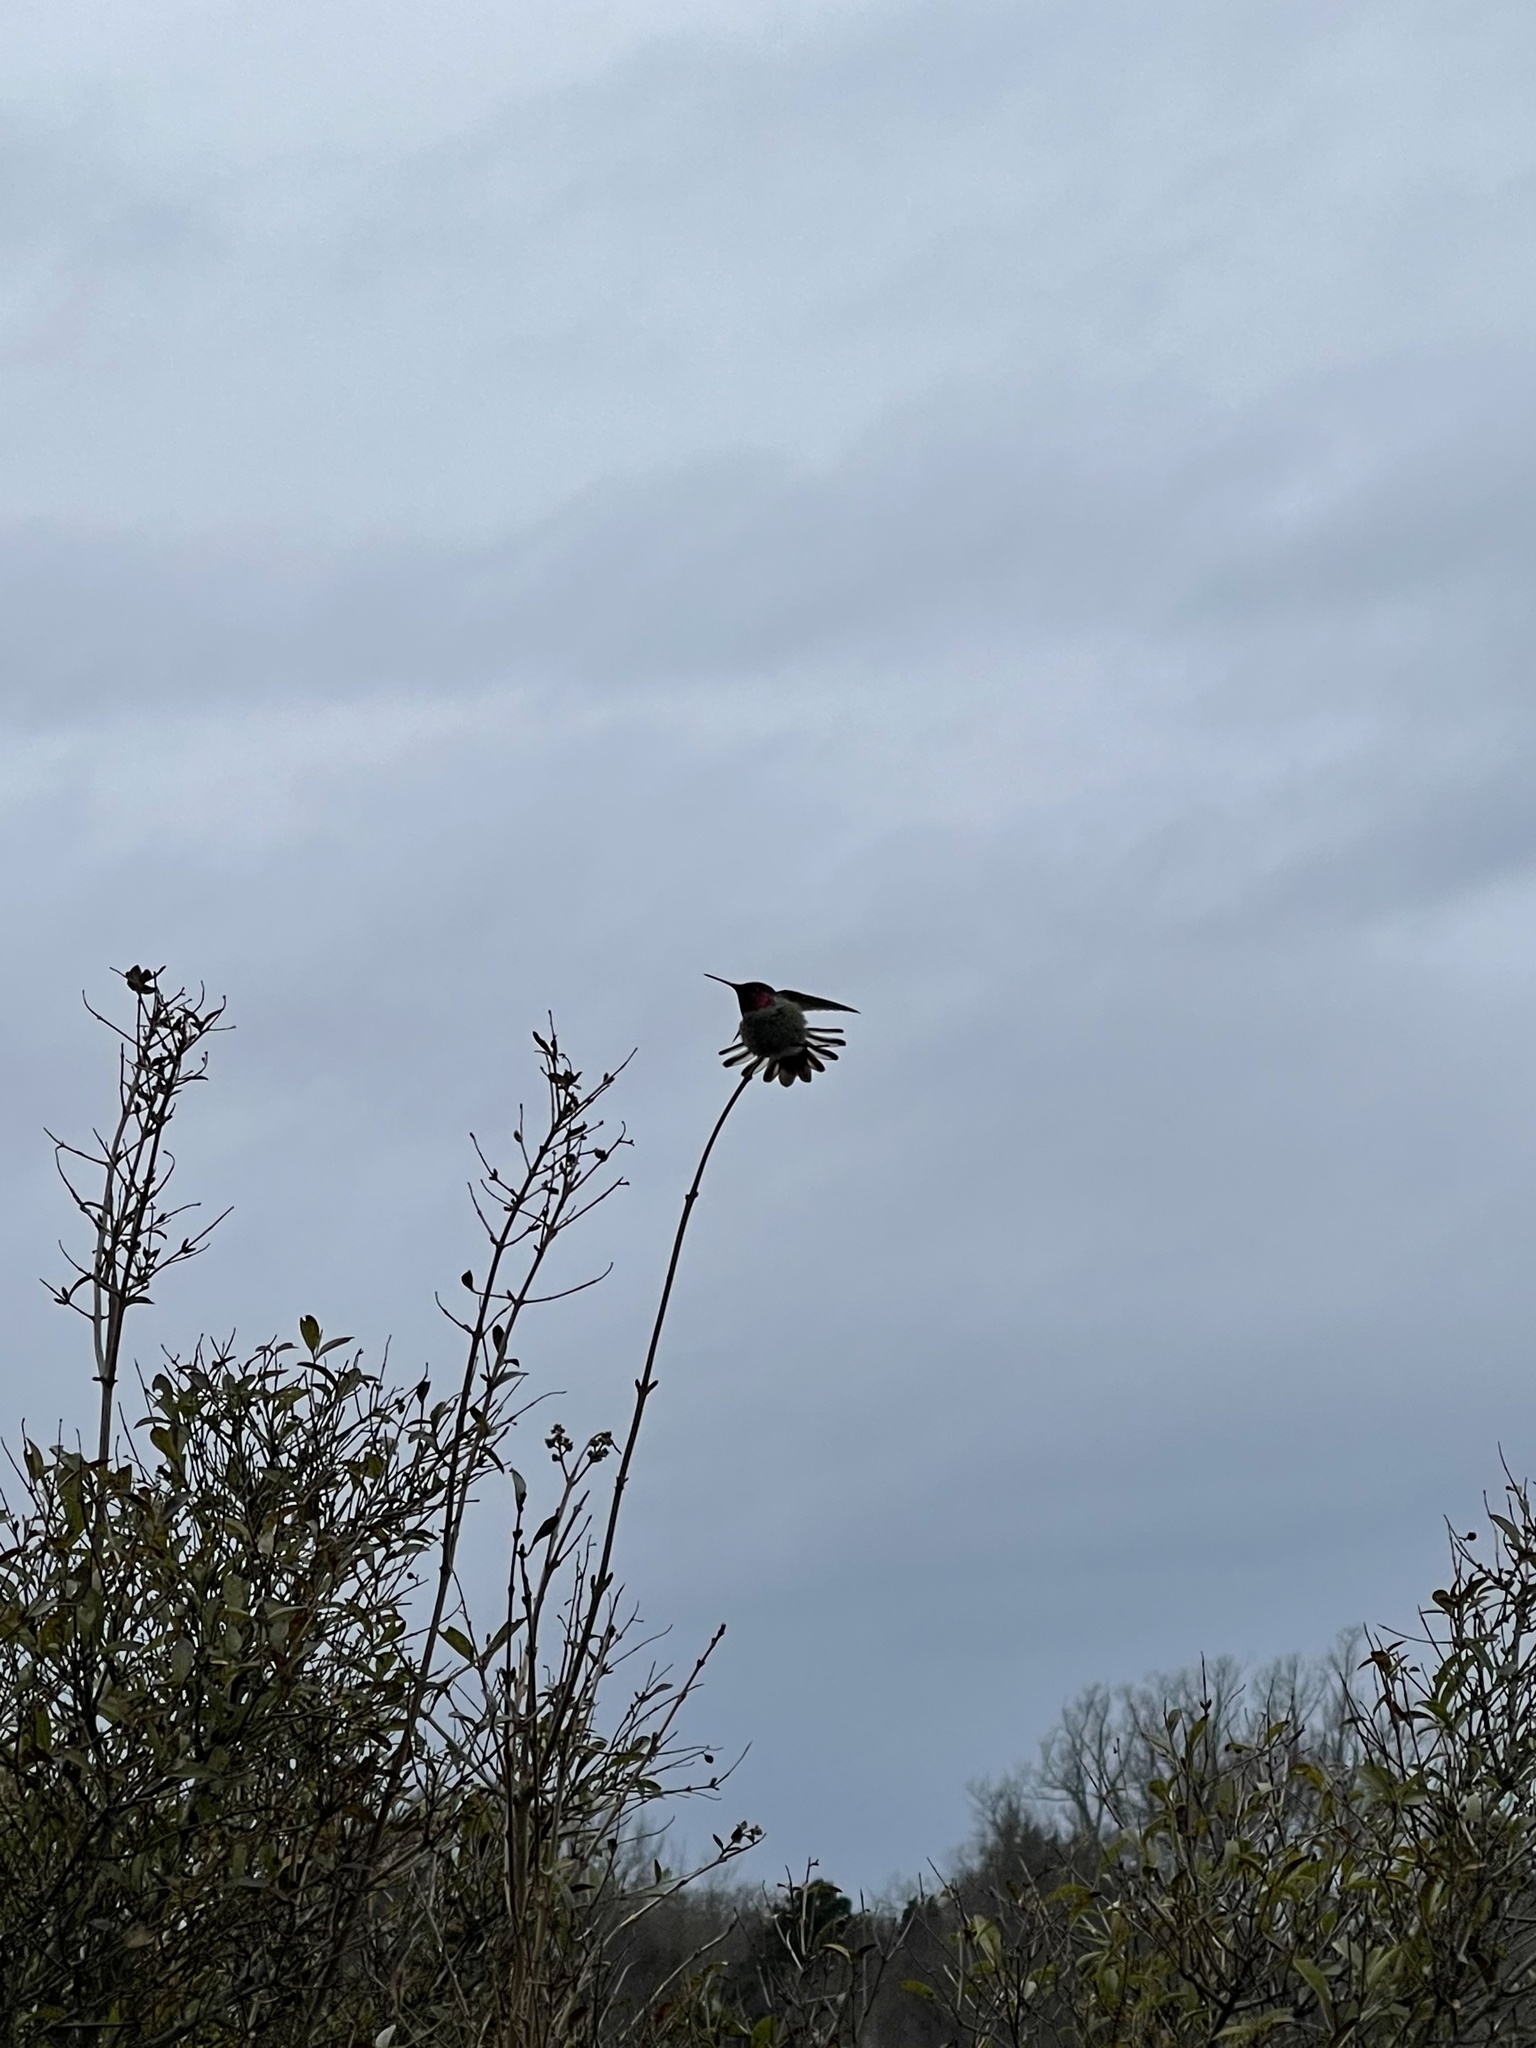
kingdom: Animalia
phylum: Chordata
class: Aves
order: Apodiformes
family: Trochilidae
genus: Calypte
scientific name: Calypte anna
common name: Anna's hummingbird
